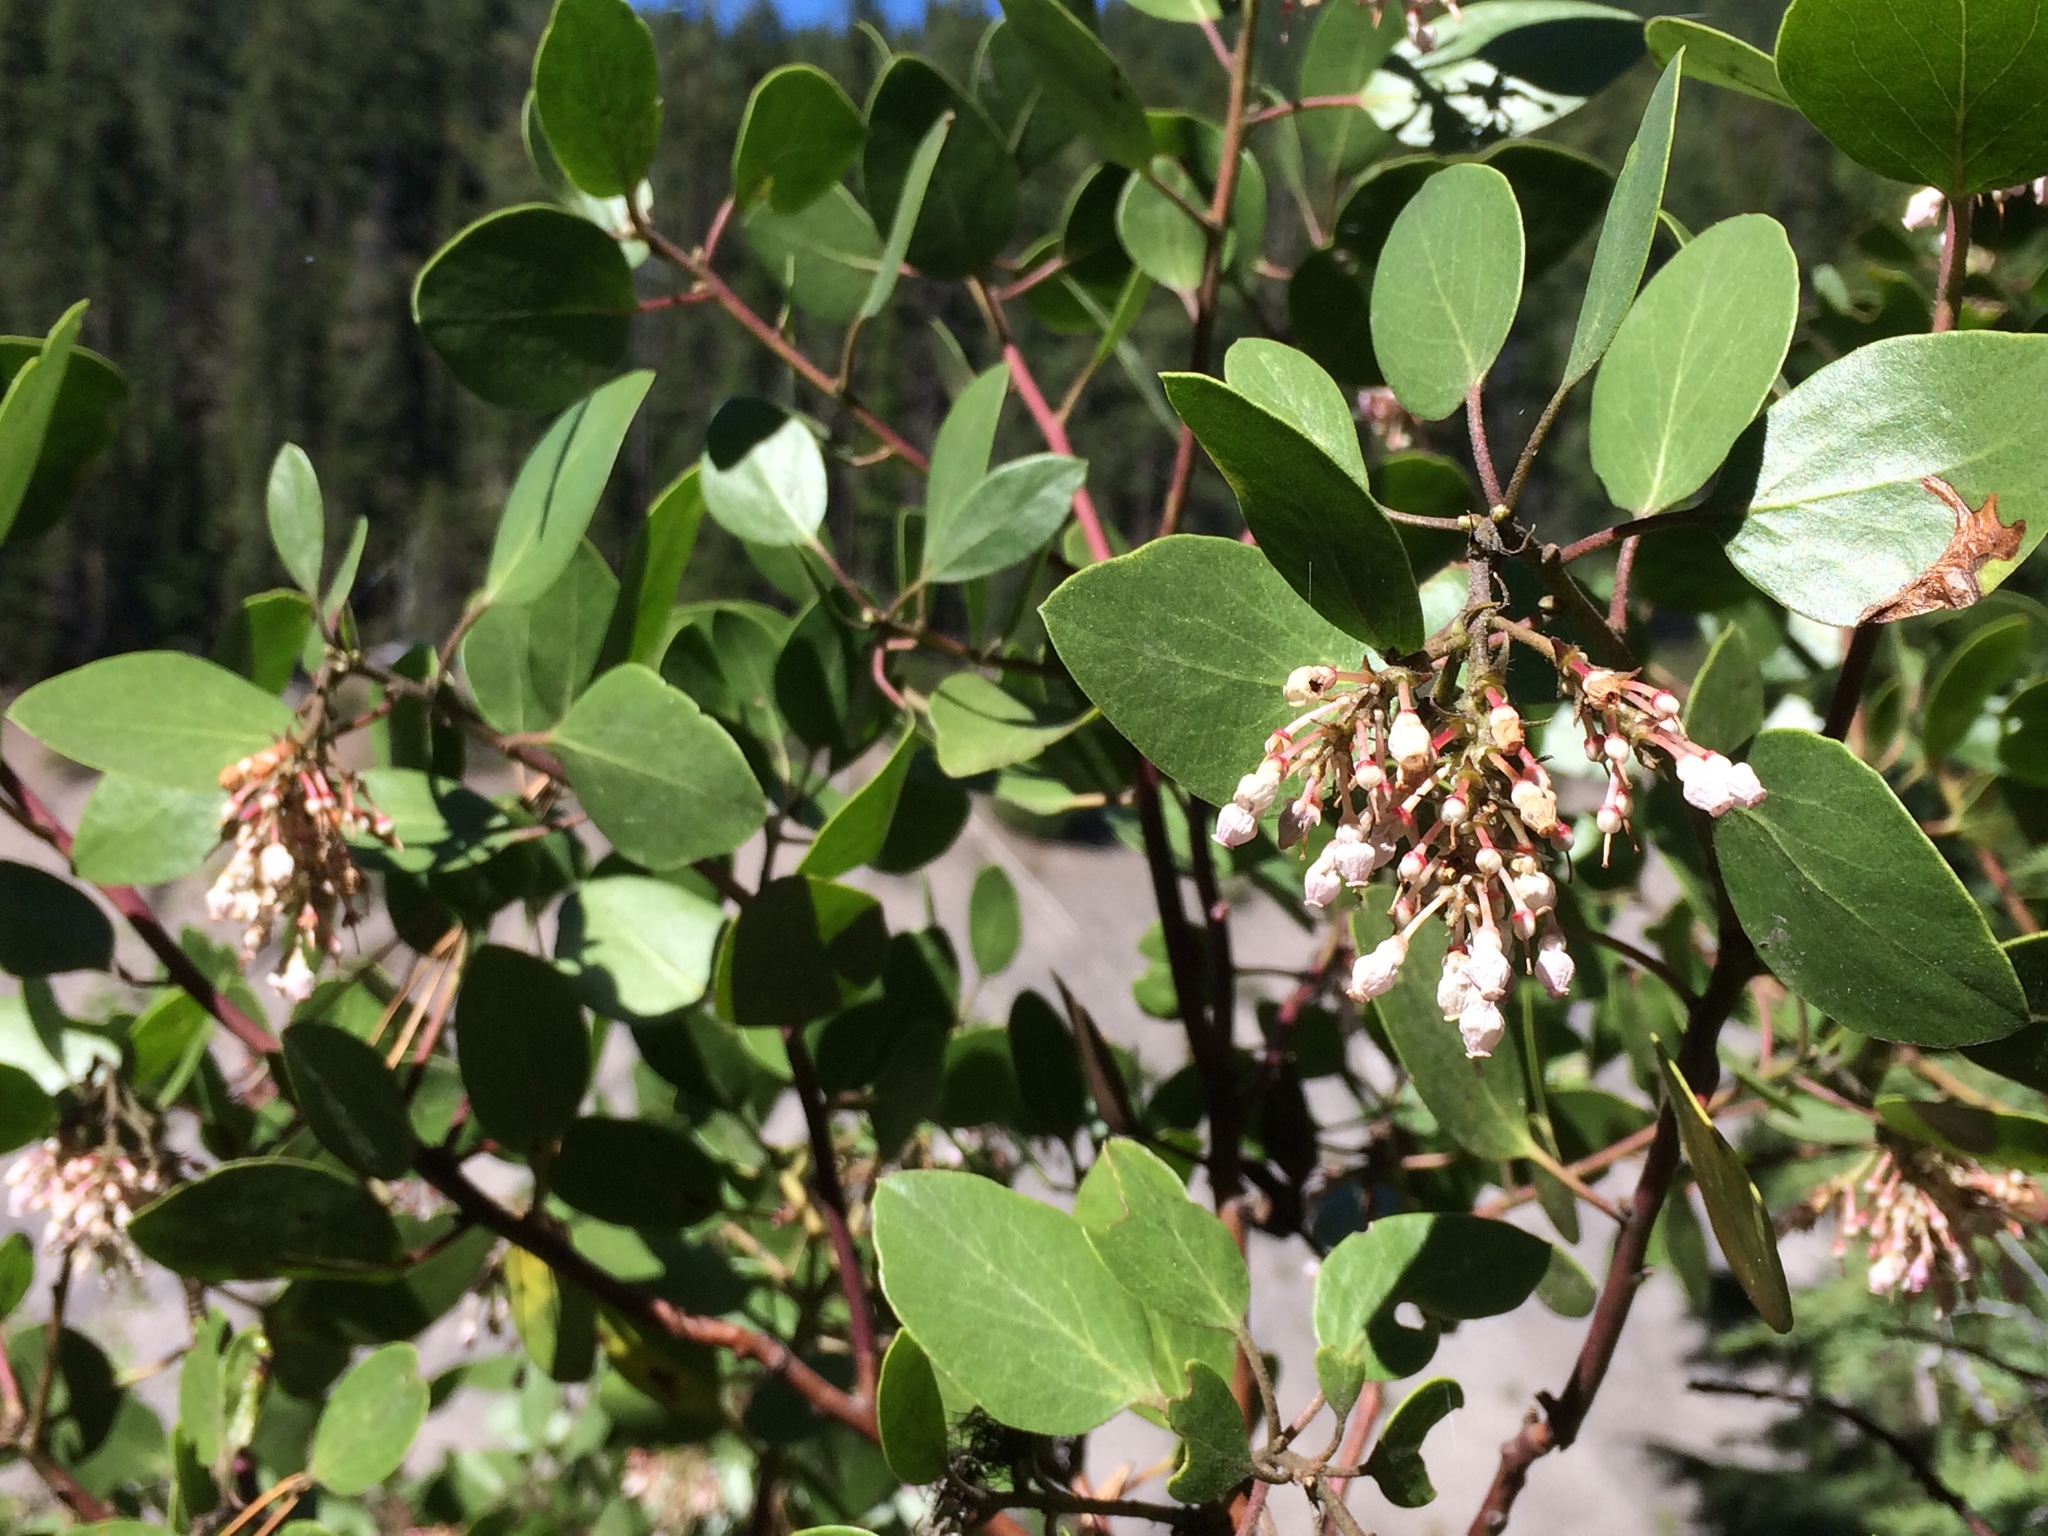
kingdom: Plantae
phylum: Tracheophyta
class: Magnoliopsida
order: Ericales
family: Ericaceae
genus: Arctostaphylos
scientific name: Arctostaphylos patula
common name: Green-leaf manzanita
